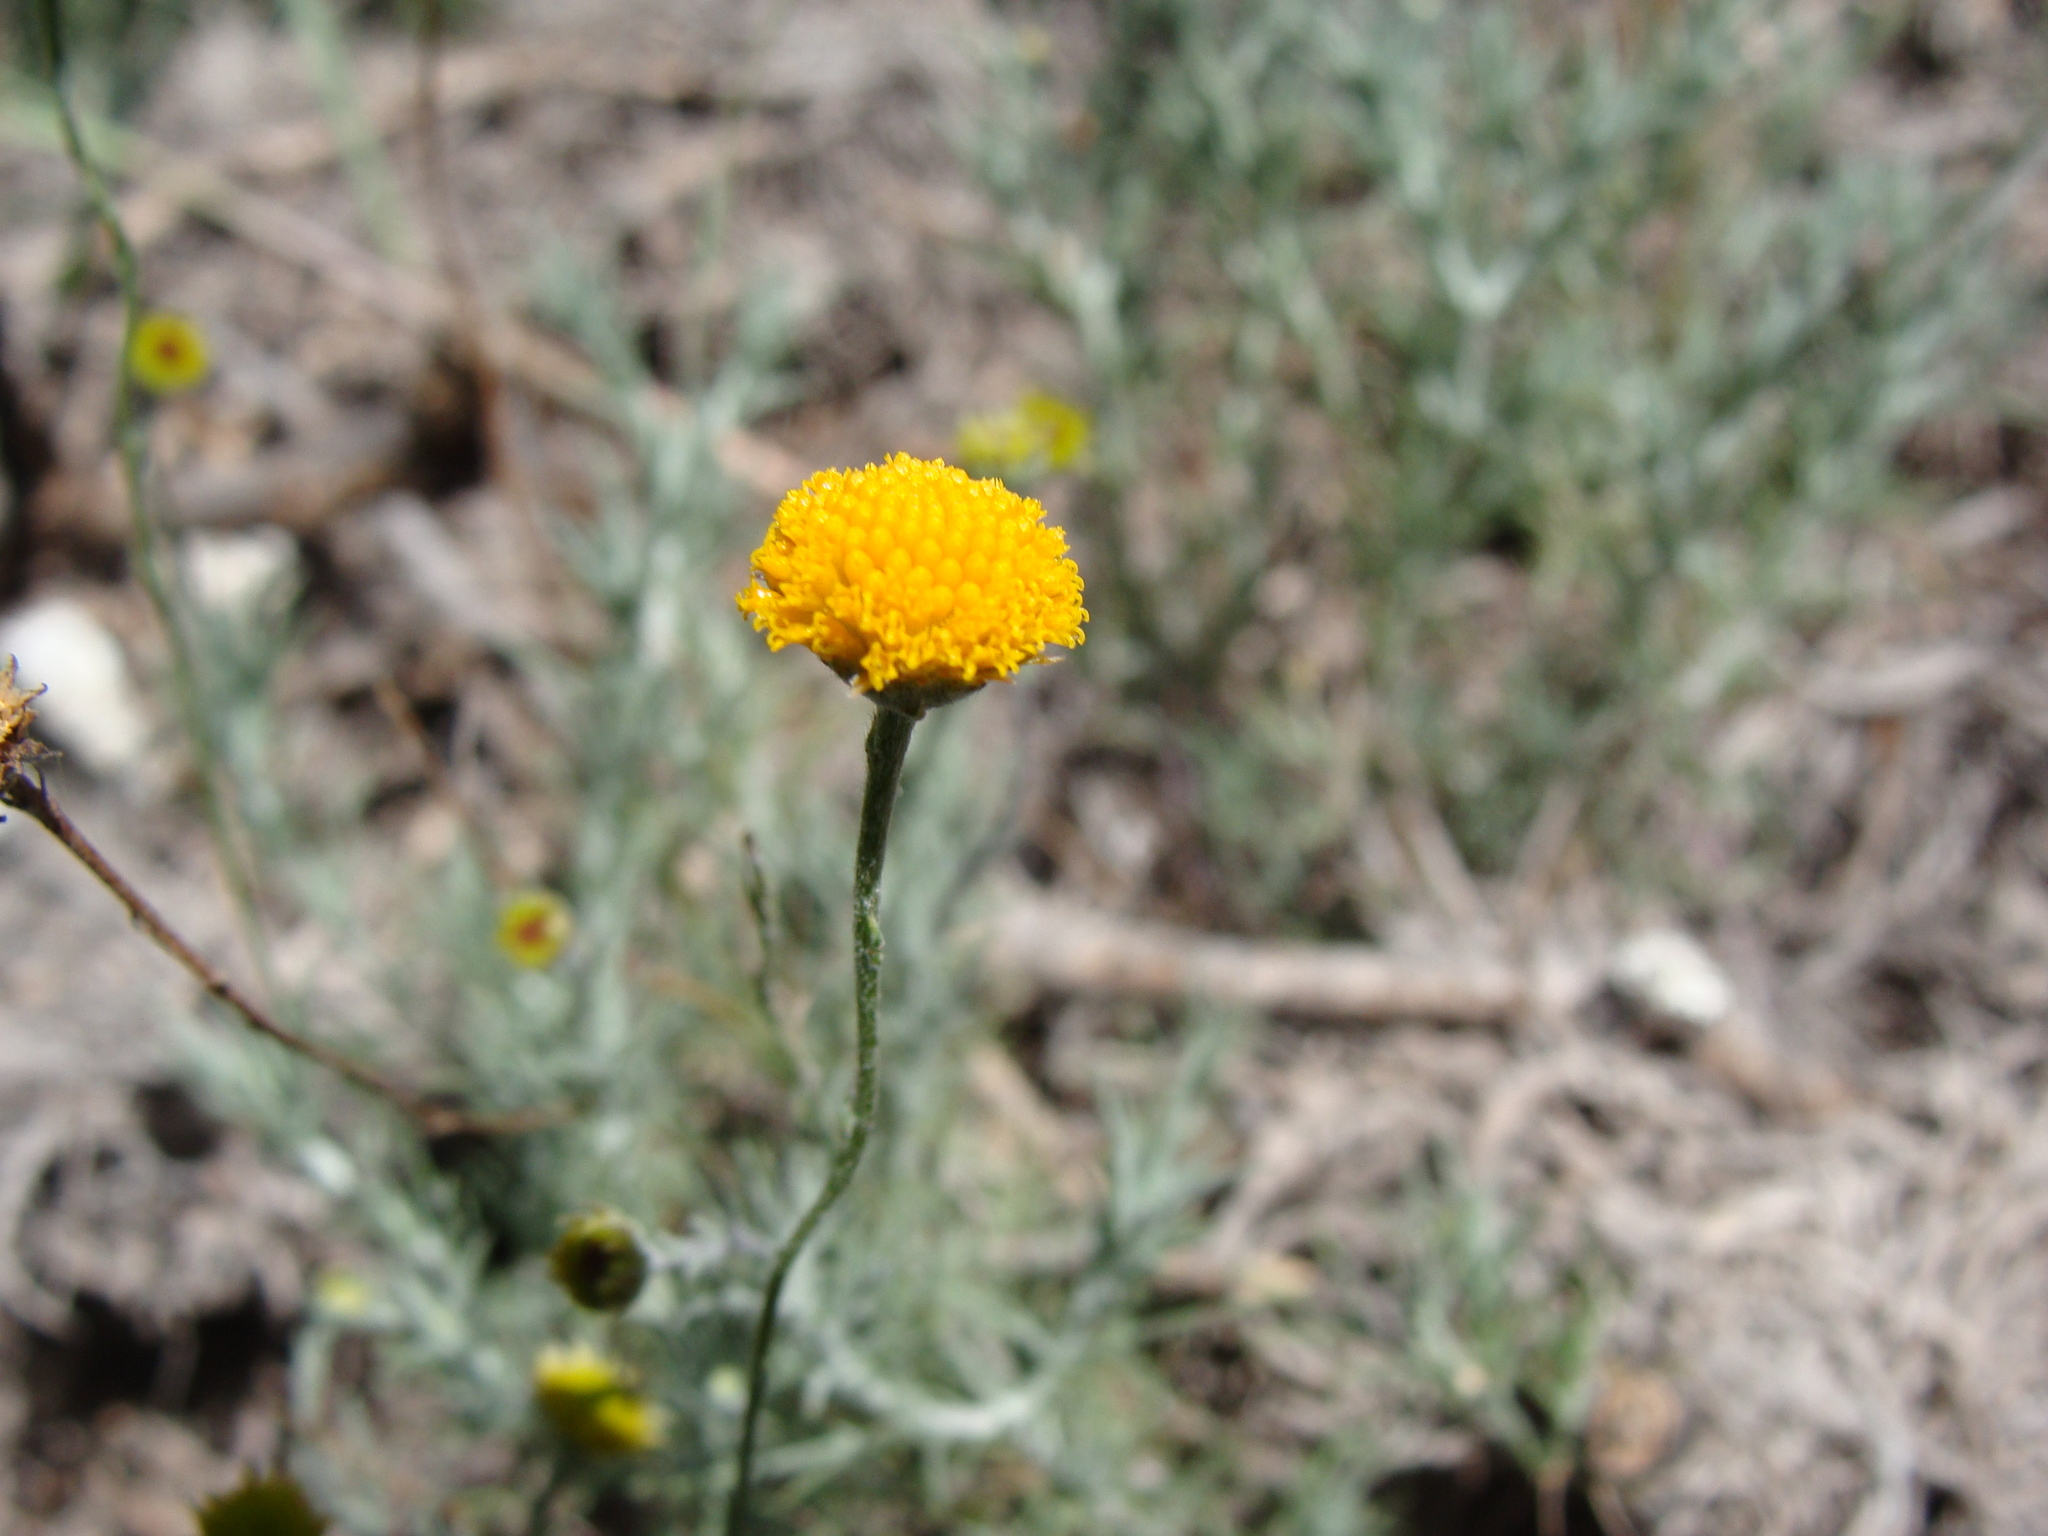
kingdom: Plantae
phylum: Tracheophyta
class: Magnoliopsida
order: Asterales
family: Asteraceae
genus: Thymophylla
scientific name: Thymophylla setifolia
